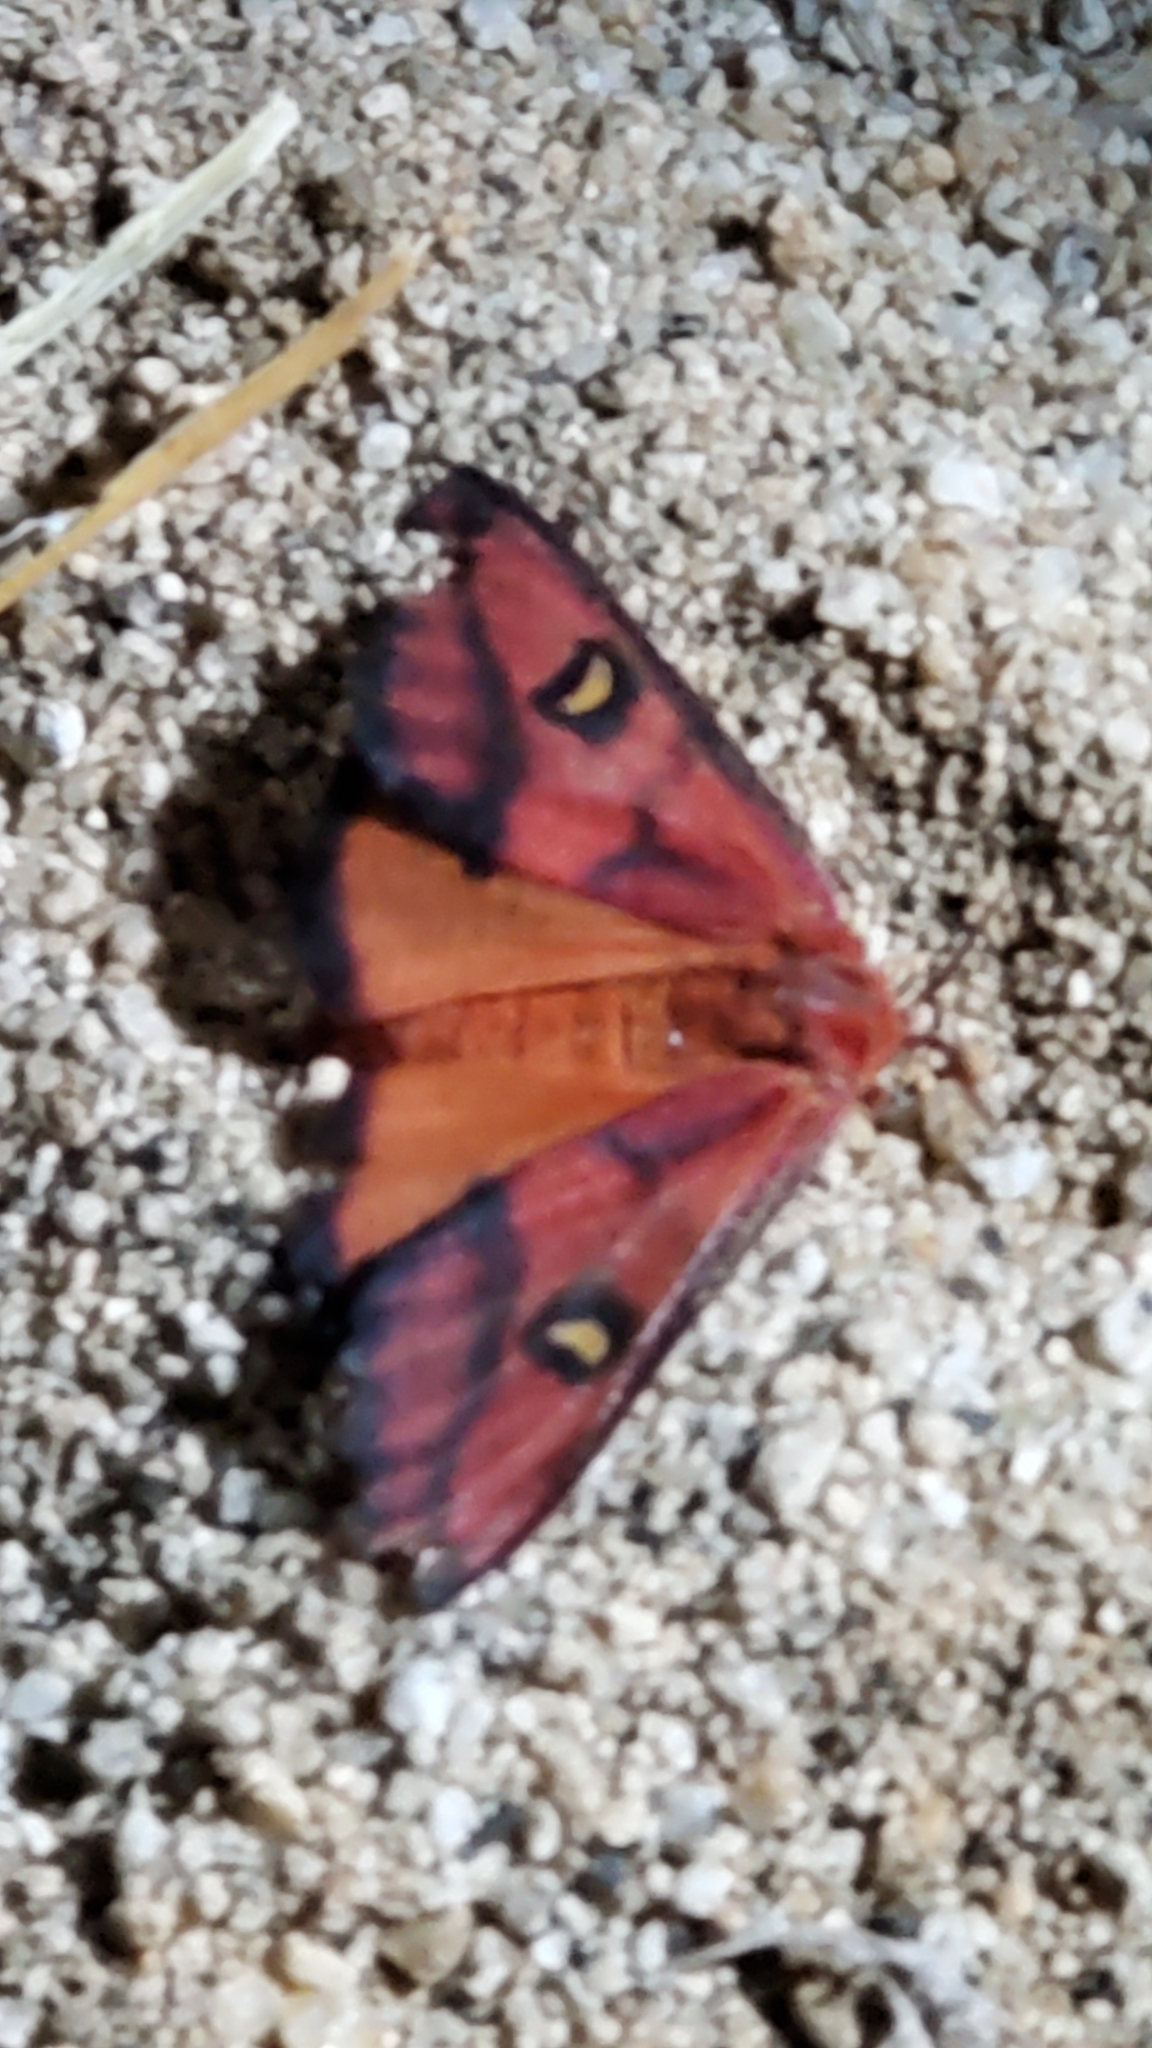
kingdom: Animalia
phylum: Arthropoda
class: Insecta
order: Lepidoptera
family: Saturniidae
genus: Hemileuca
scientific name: Hemileuca electra
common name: Electra buckmoth
